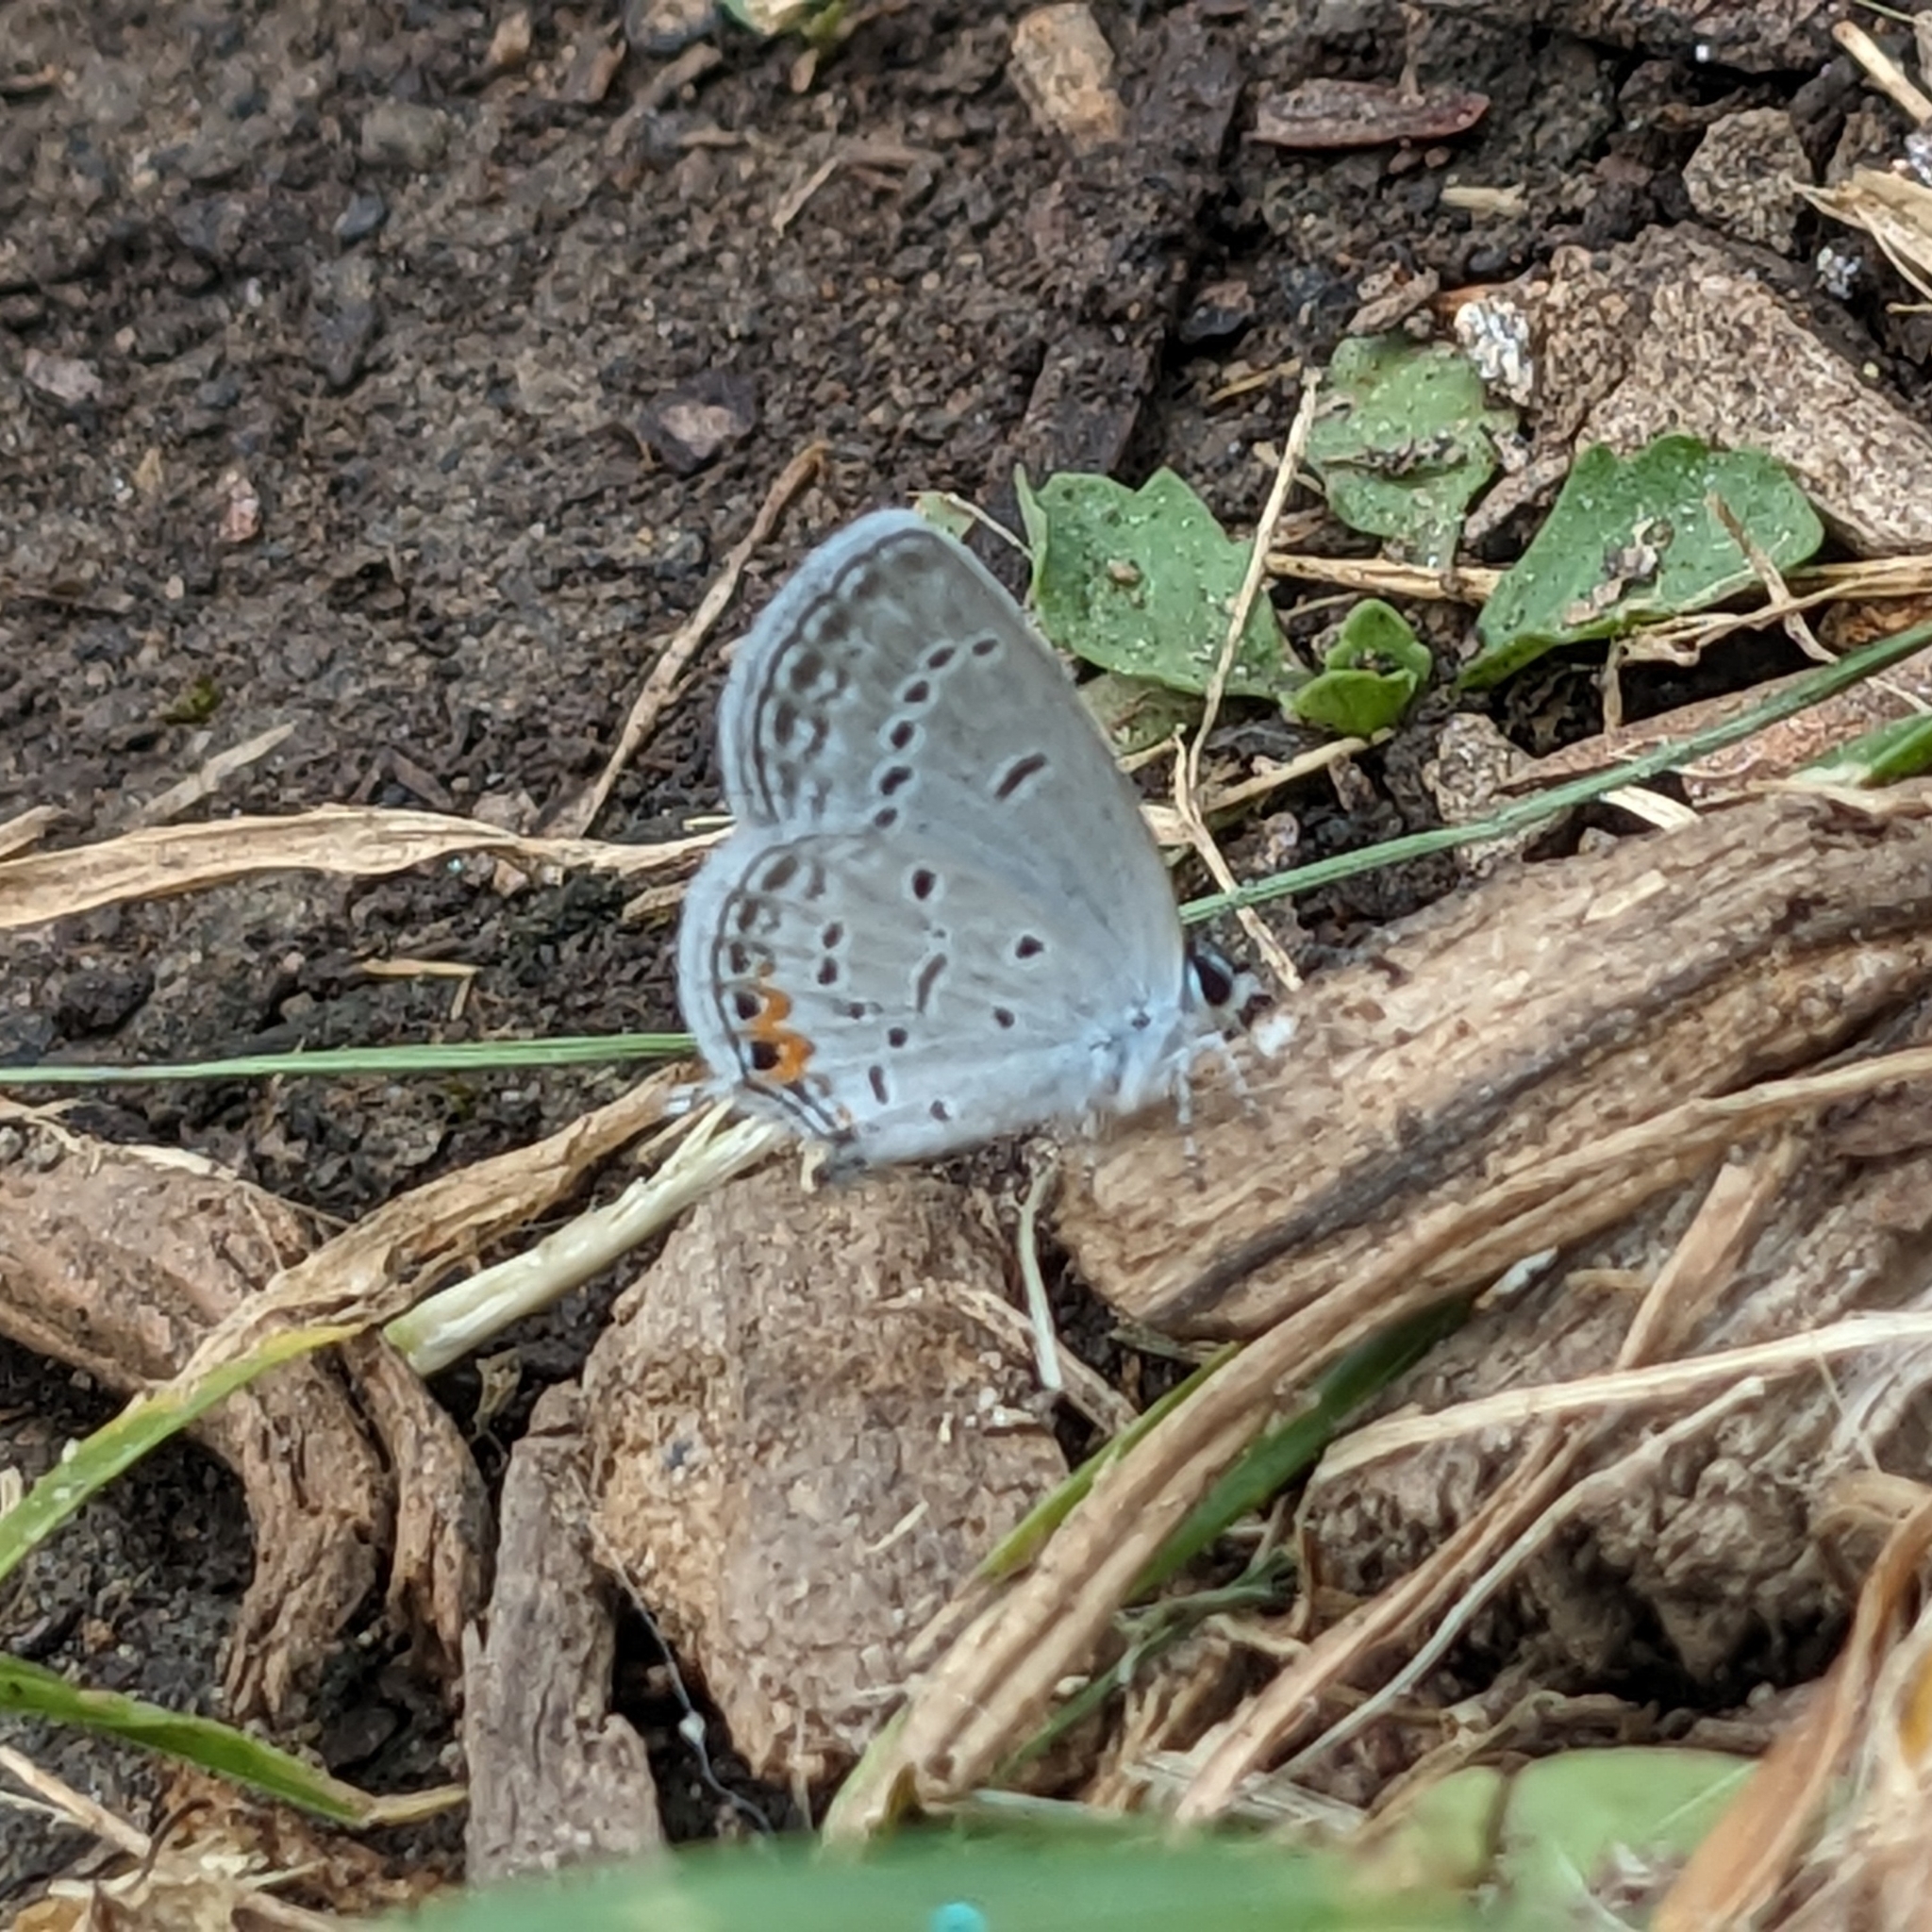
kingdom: Animalia
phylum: Arthropoda
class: Insecta
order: Lepidoptera
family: Lycaenidae
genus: Elkalyce
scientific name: Elkalyce comyntas
